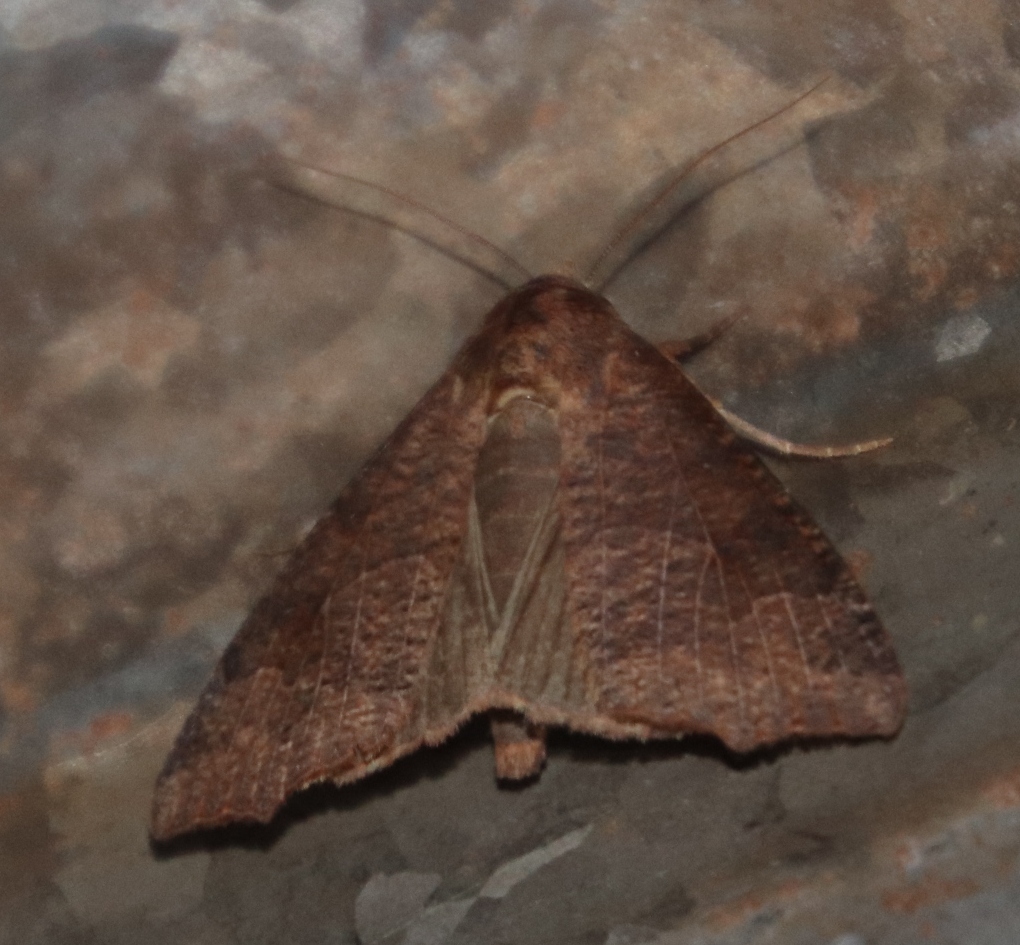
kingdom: Animalia
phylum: Arthropoda
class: Insecta
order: Lepidoptera
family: Erebidae
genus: Anomis
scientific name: Anomis sabulifera
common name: Angled gem
